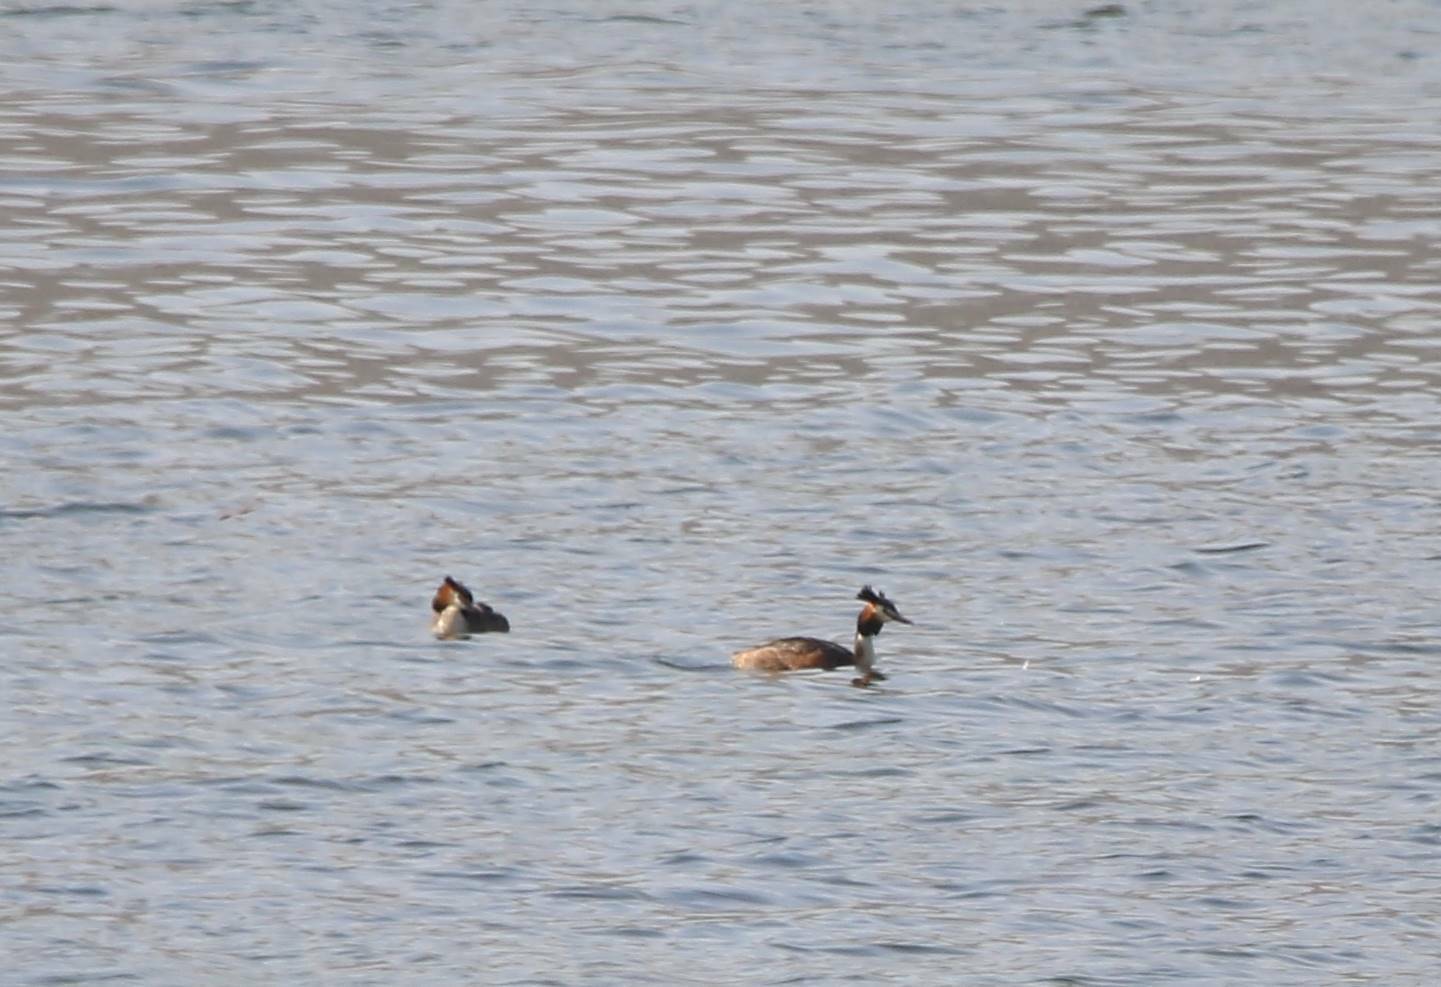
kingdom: Animalia
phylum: Chordata
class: Aves
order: Podicipediformes
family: Podicipedidae
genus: Podiceps
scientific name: Podiceps cristatus
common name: Great crested grebe
